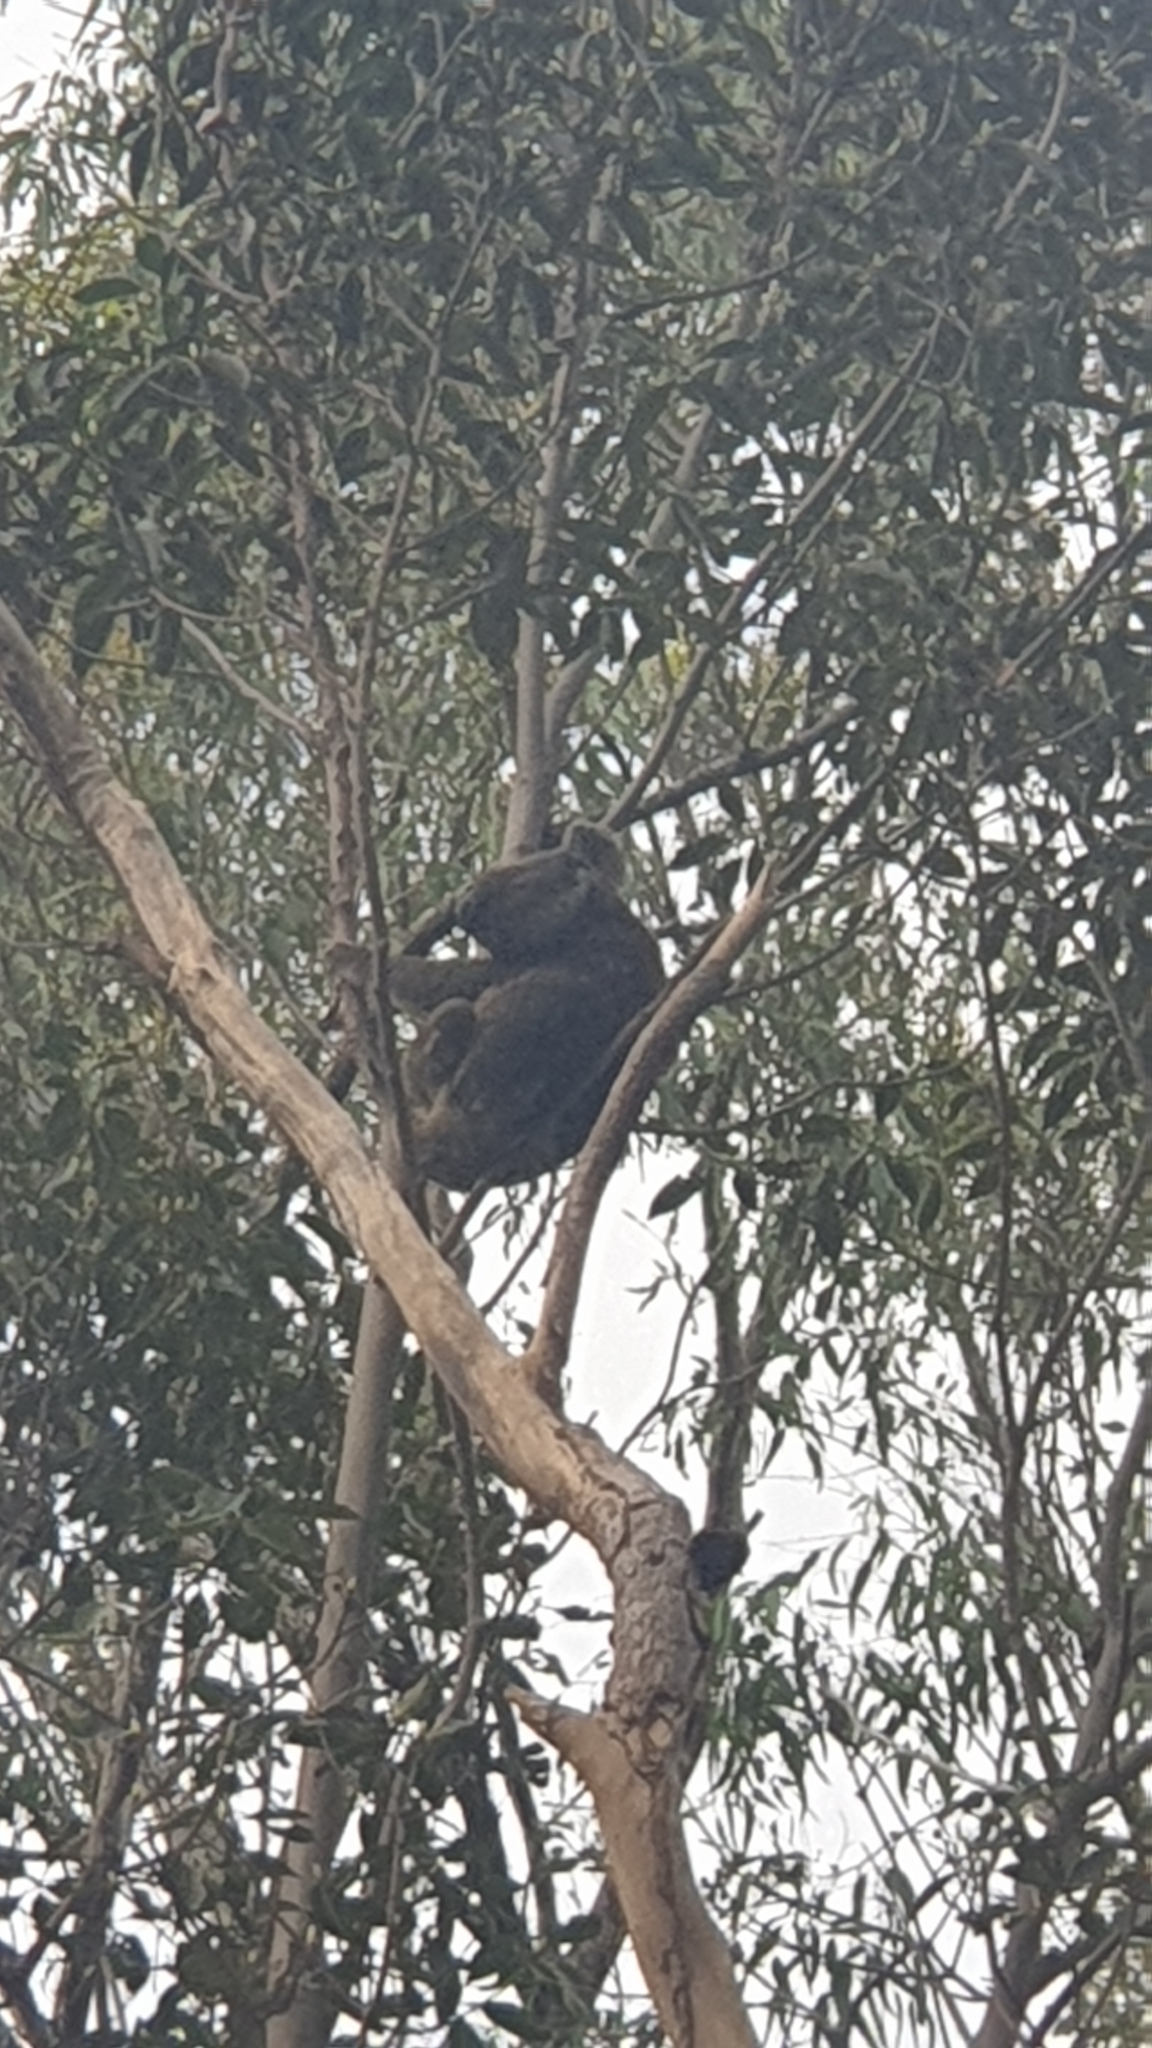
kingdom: Animalia
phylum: Chordata
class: Mammalia
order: Diprotodontia
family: Phascolarctidae
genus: Phascolarctos
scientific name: Phascolarctos cinereus
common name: Koala
